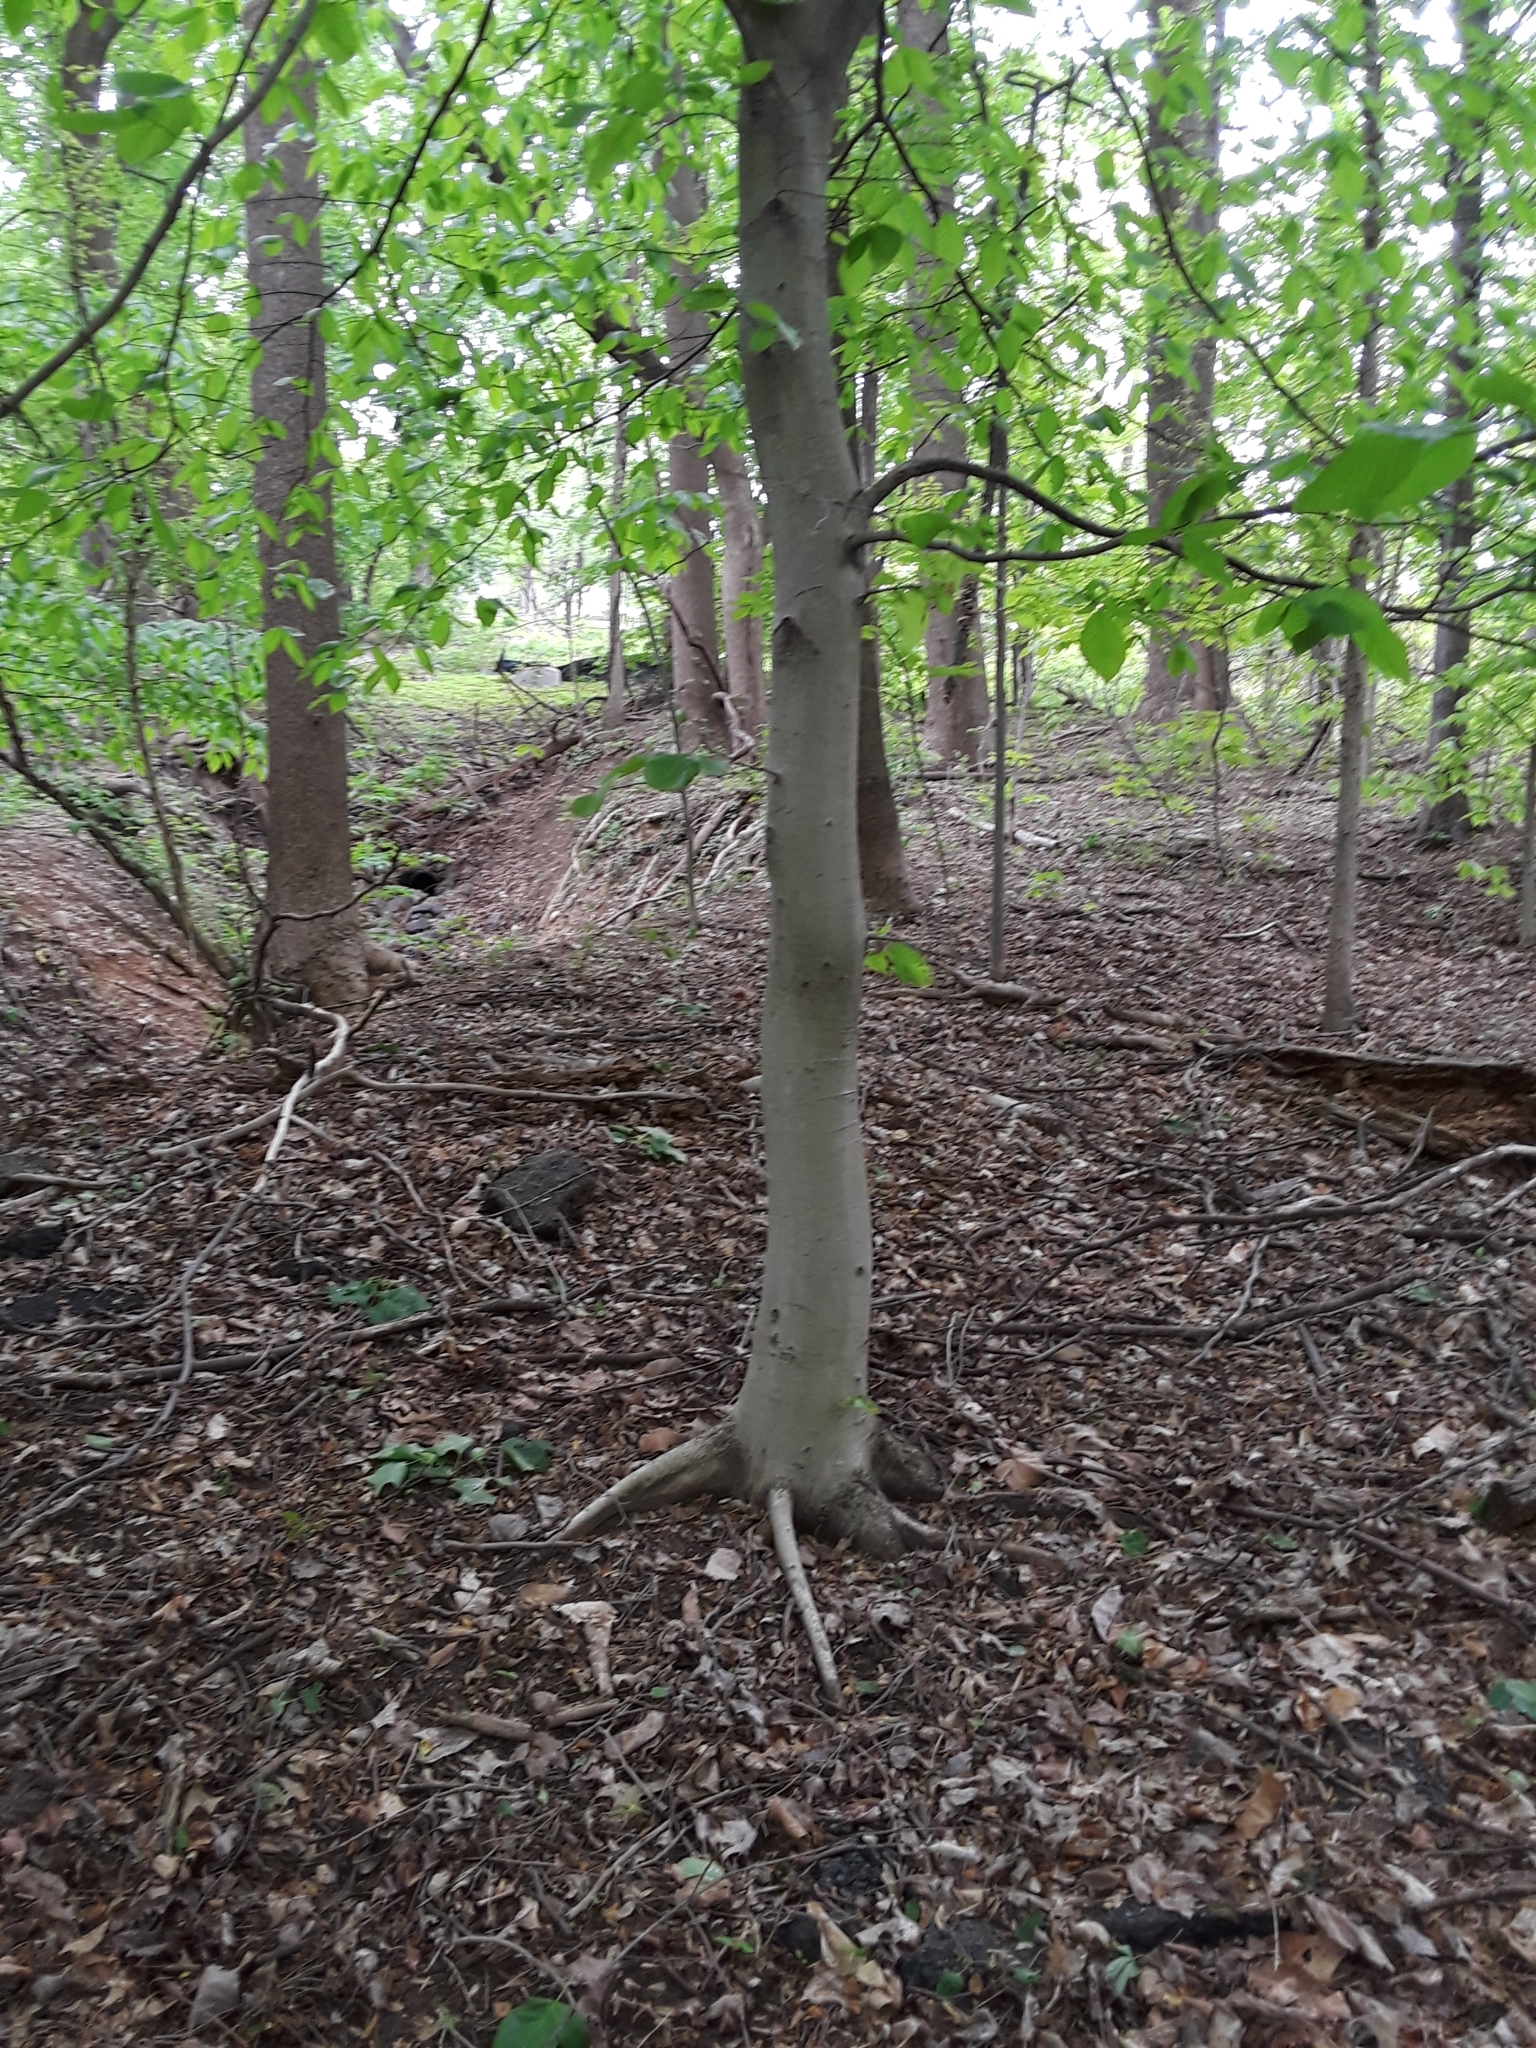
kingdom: Plantae
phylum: Tracheophyta
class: Magnoliopsida
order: Fagales
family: Fagaceae
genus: Fagus
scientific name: Fagus grandifolia
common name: American beech
